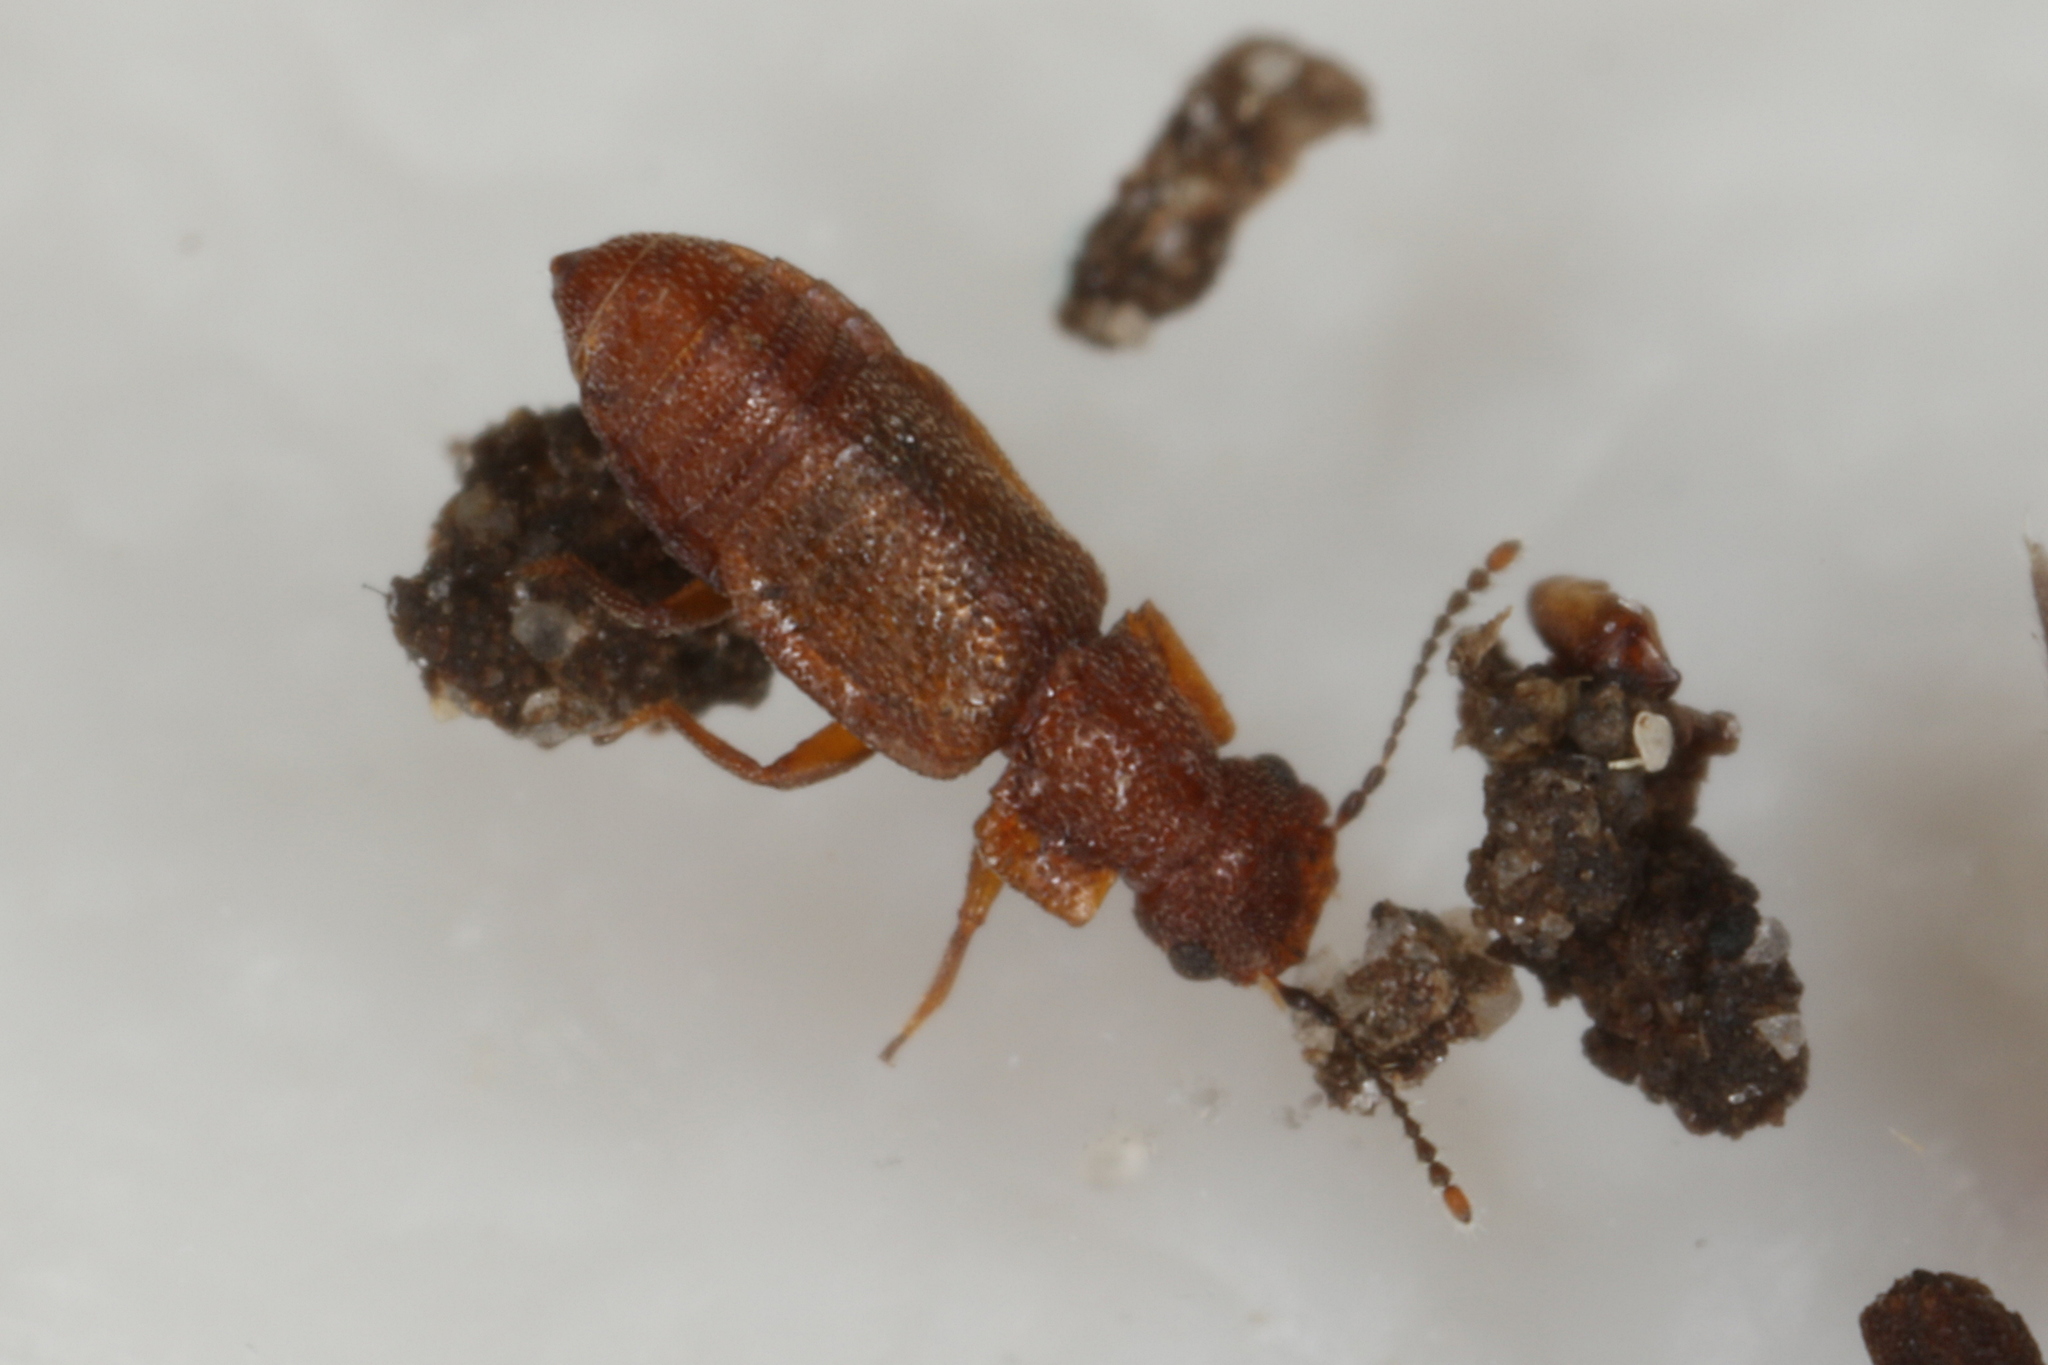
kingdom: Animalia
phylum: Arthropoda
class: Insecta
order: Coleoptera
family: Staphylinidae
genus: Metopsia
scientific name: Metopsia similis
